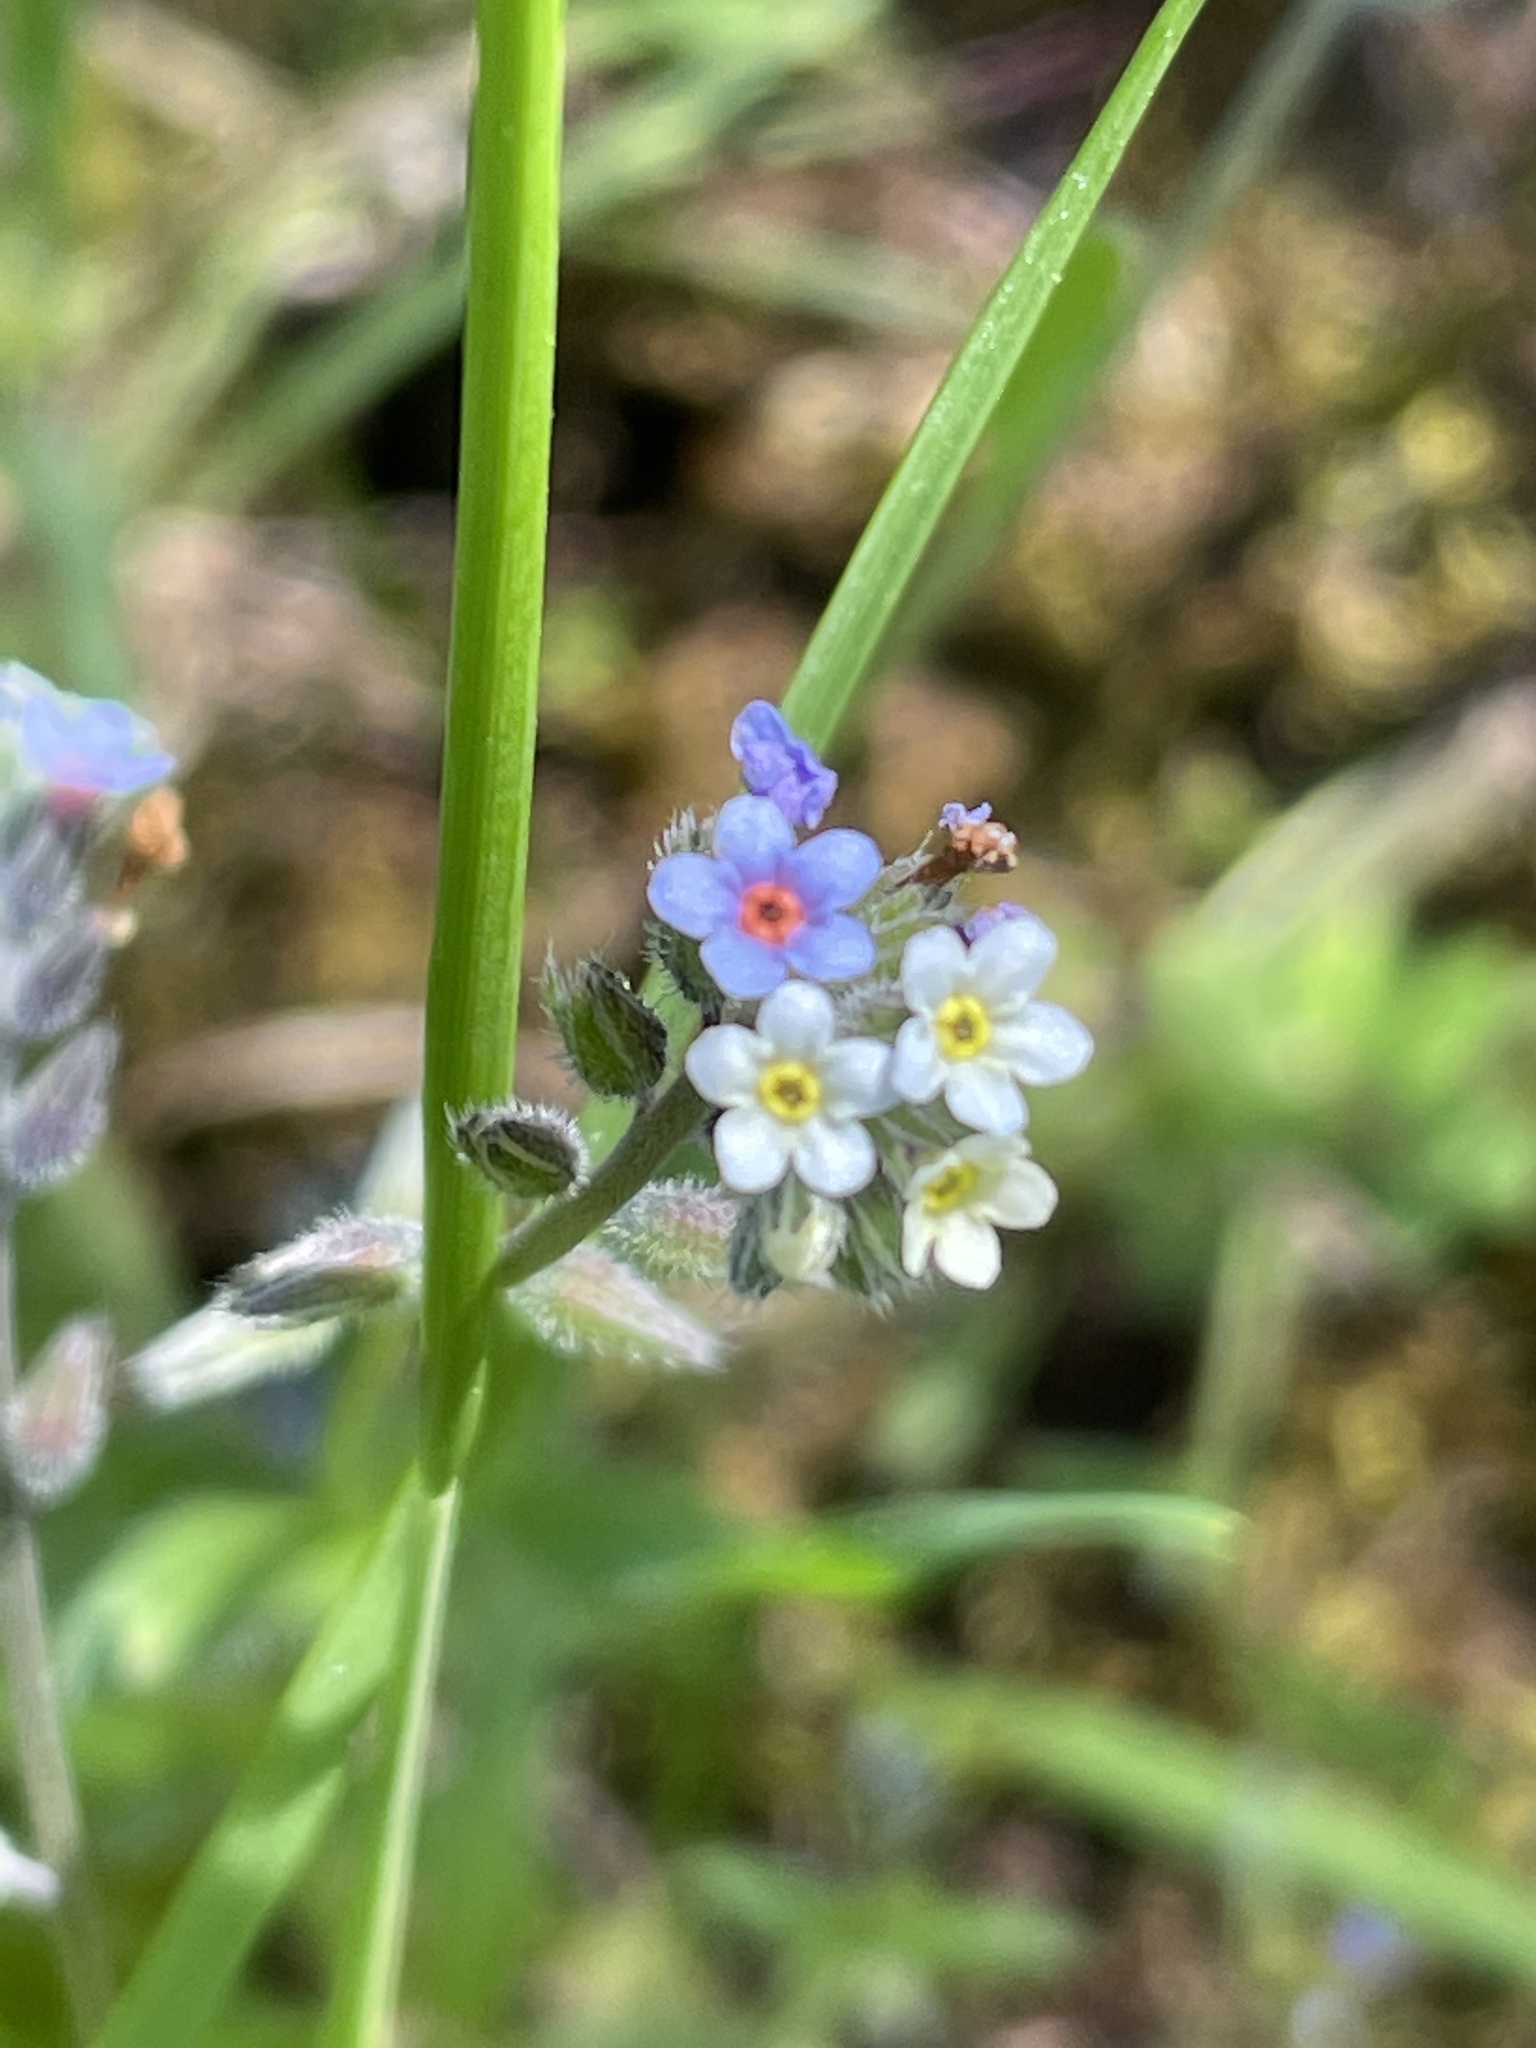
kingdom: Plantae
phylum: Tracheophyta
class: Magnoliopsida
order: Boraginales
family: Boraginaceae
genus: Myosotis
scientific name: Myosotis discolor
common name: Changing forget-me-not
